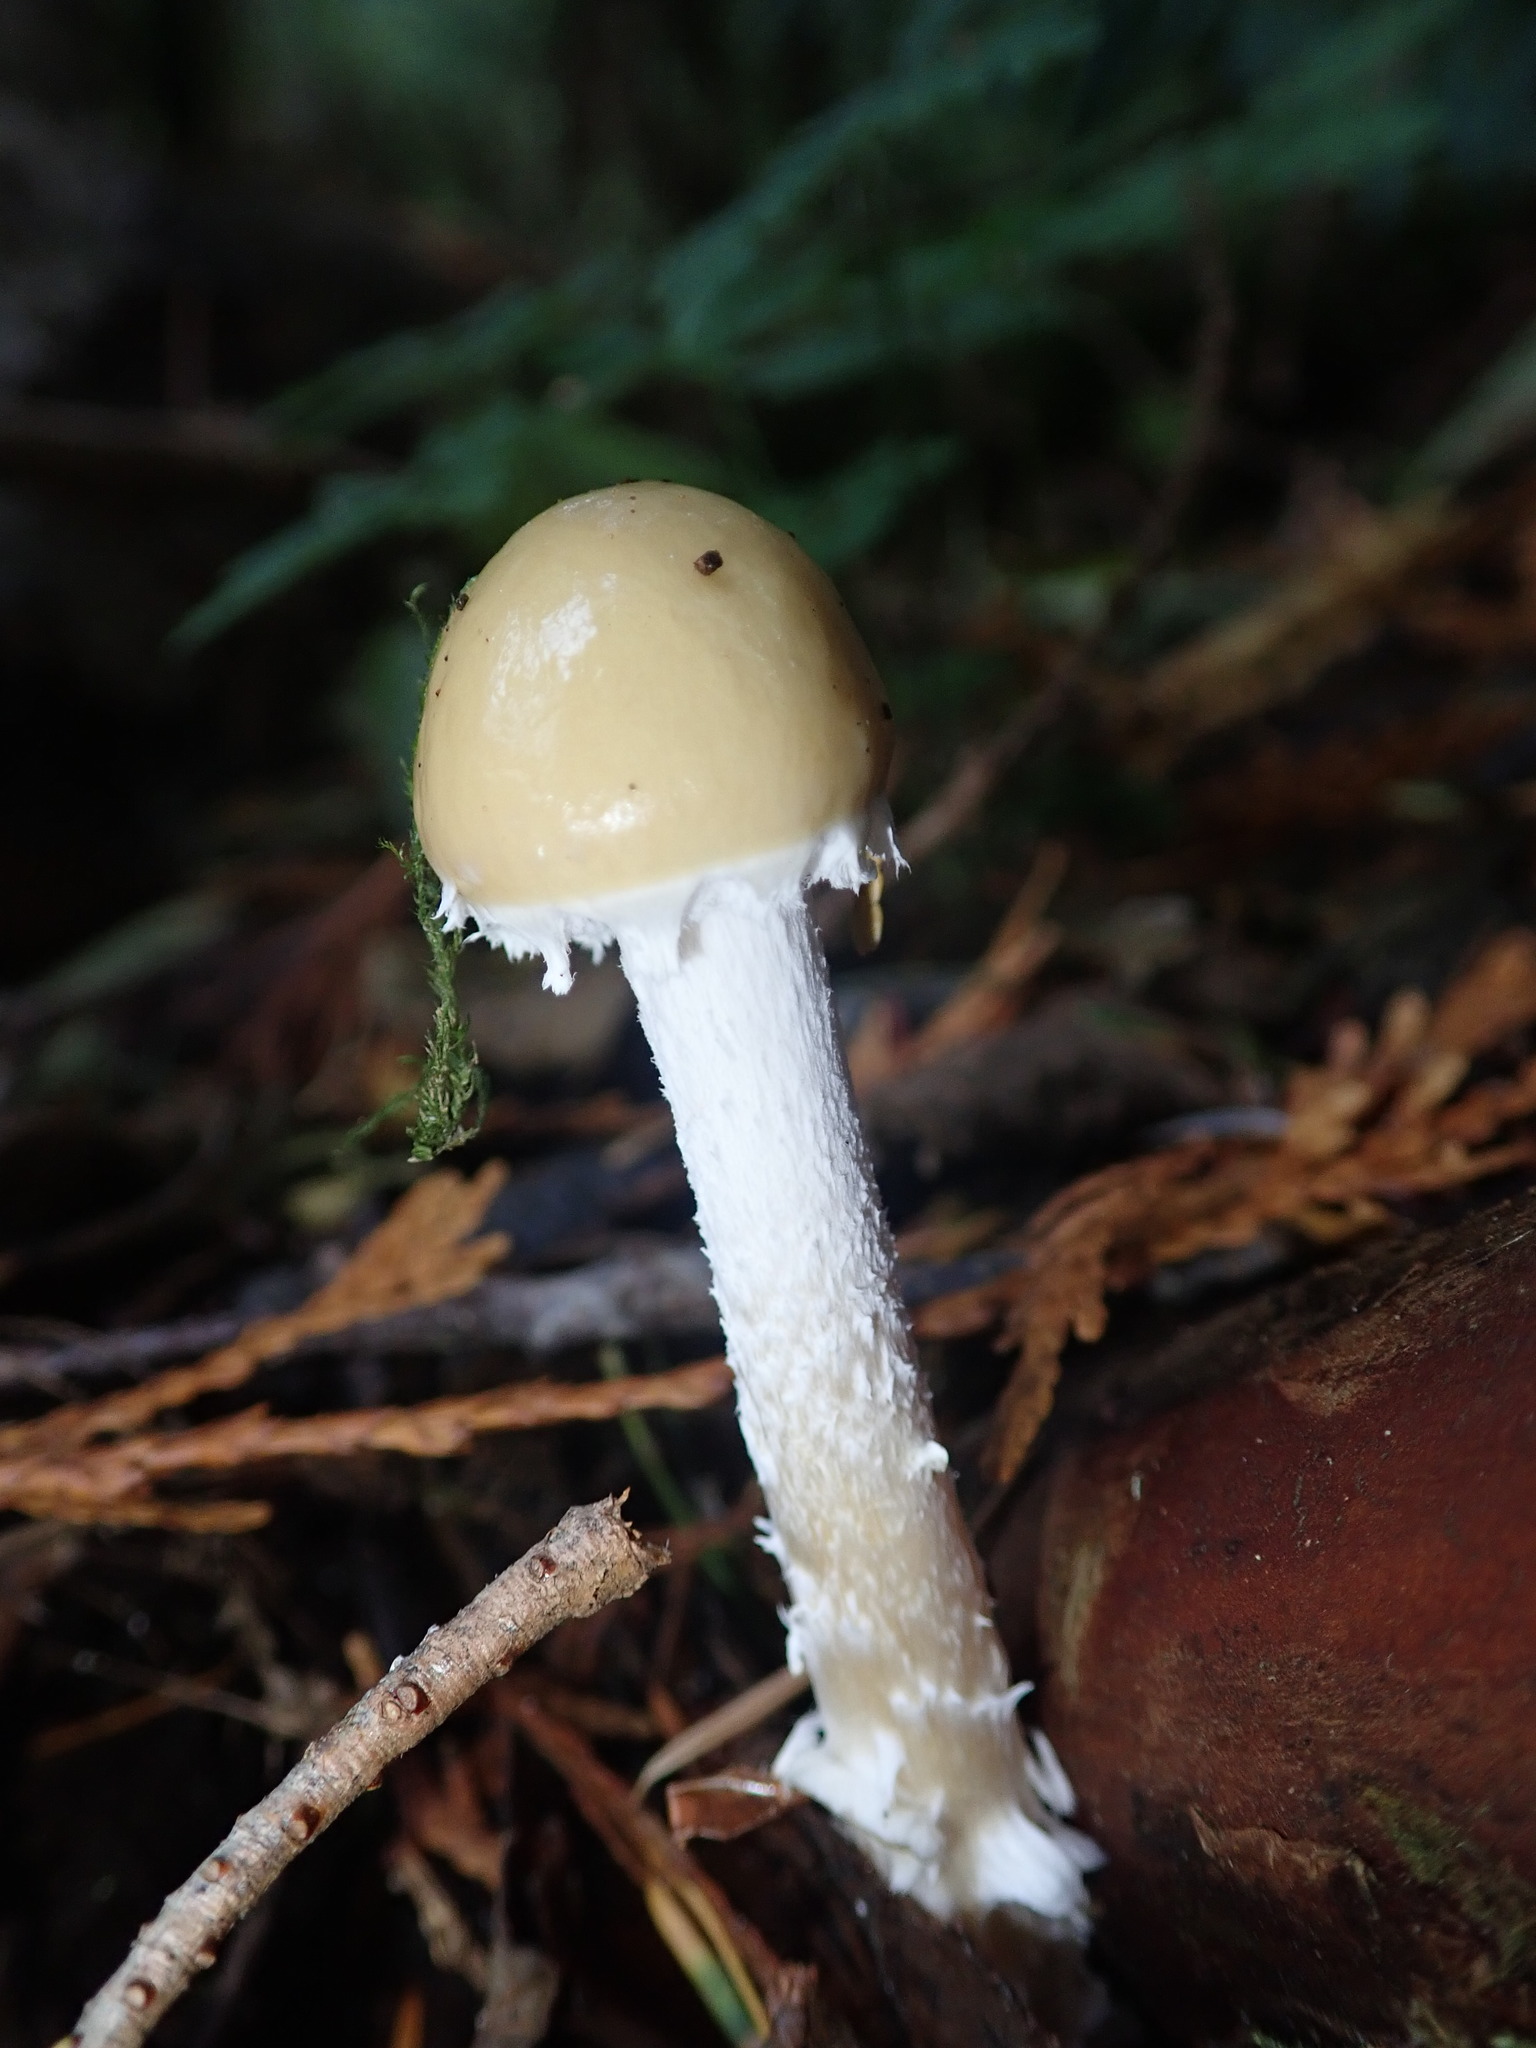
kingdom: Fungi
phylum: Basidiomycota
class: Agaricomycetes
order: Agaricales
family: Strophariaceae
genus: Stropharia
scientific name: Stropharia ambigua
